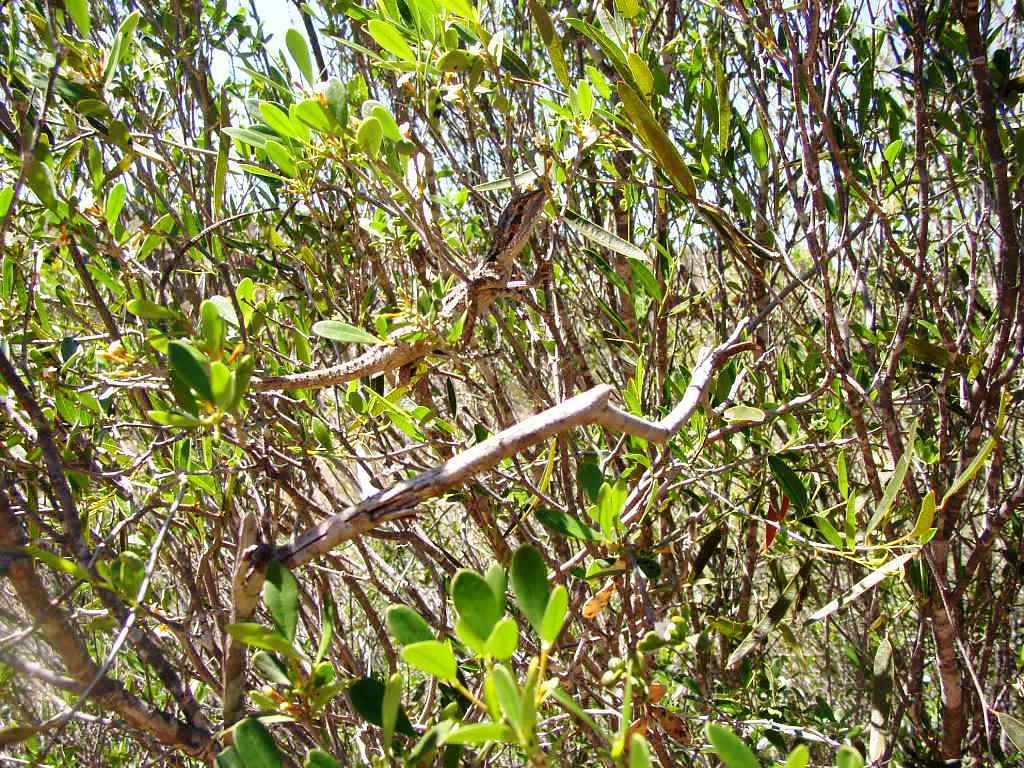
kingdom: Animalia
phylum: Chordata
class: Squamata
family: Agamidae
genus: Pogona
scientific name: Pogona minor
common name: Dwarf bearded dragon
